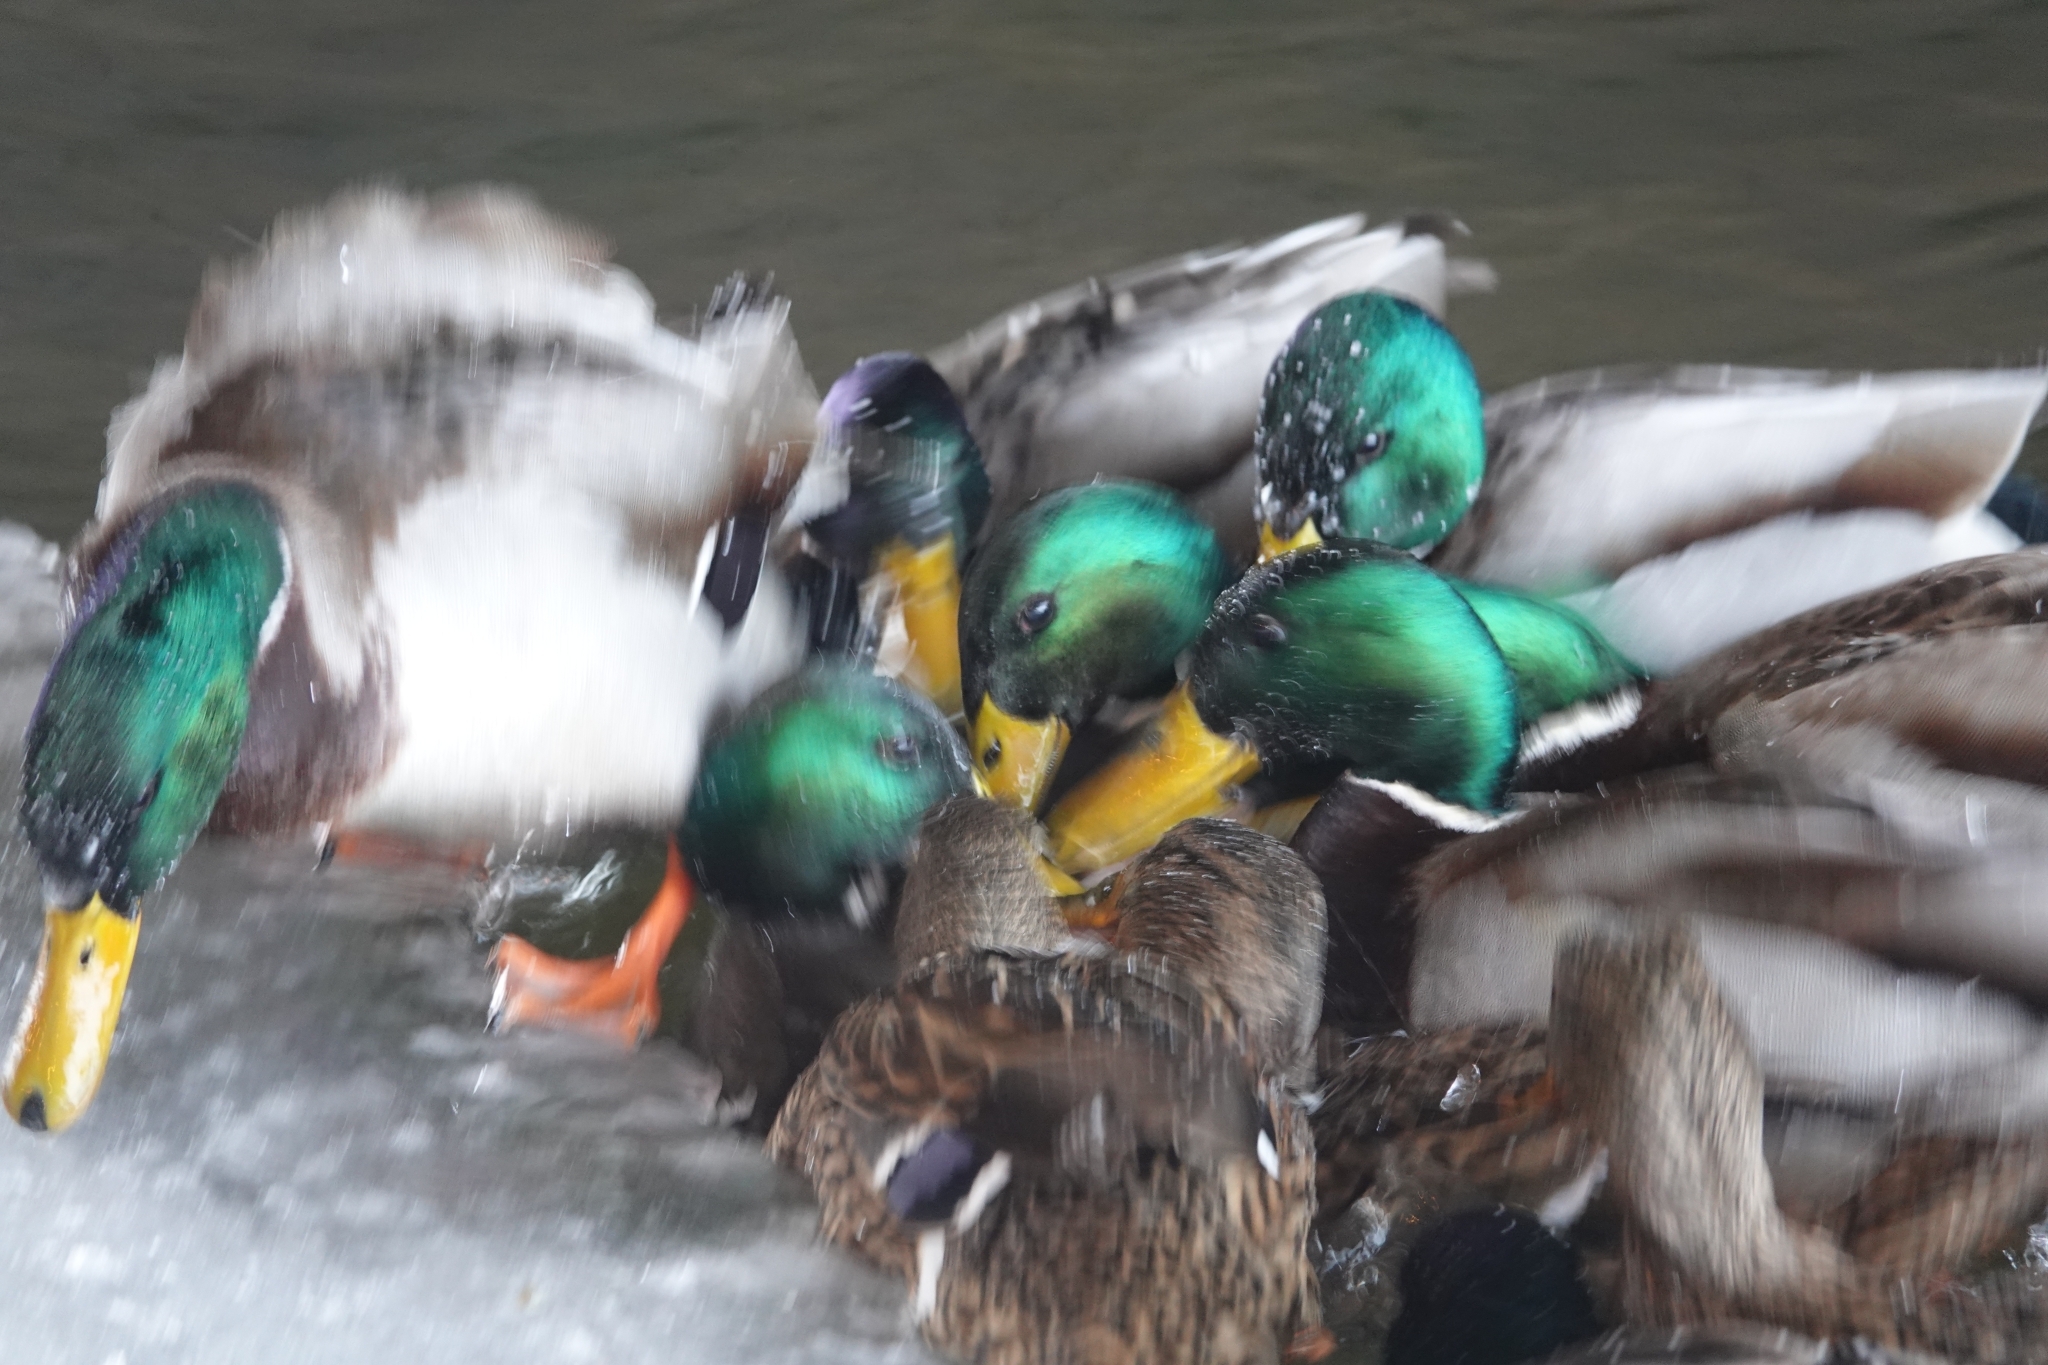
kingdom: Animalia
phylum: Chordata
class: Aves
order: Anseriformes
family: Anatidae
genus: Anas
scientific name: Anas platyrhynchos
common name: Mallard
